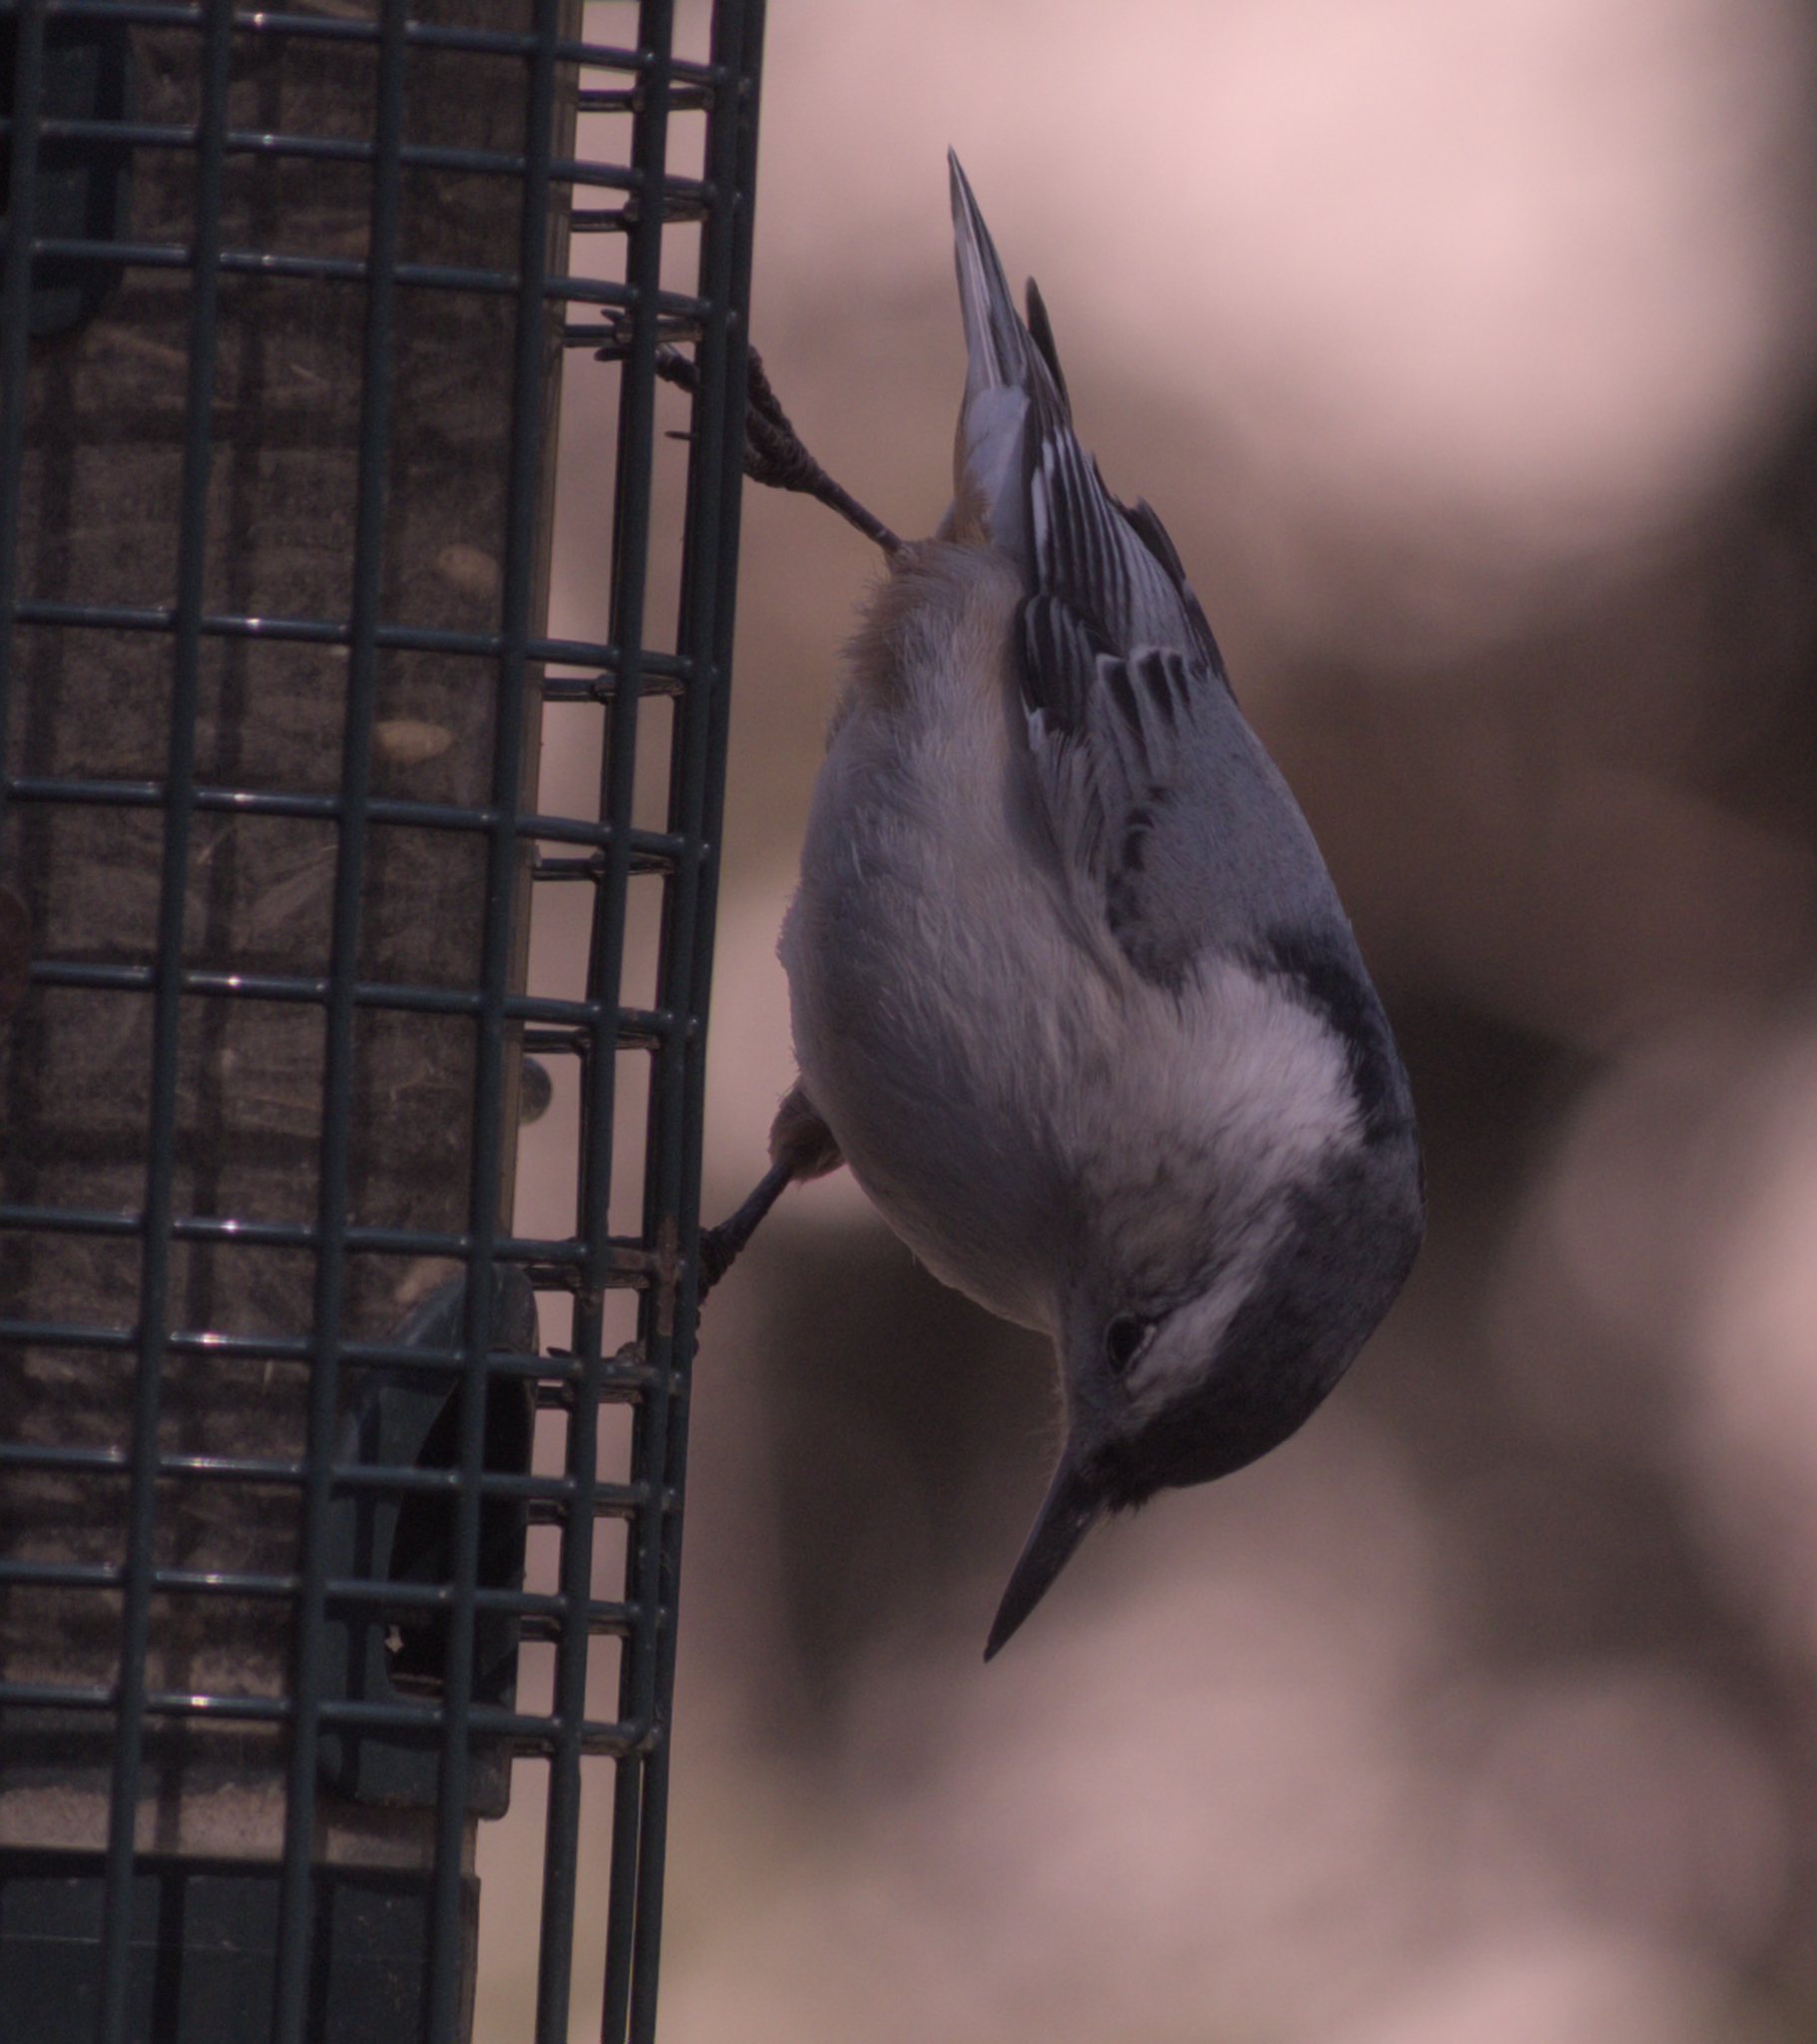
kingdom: Animalia
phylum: Chordata
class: Aves
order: Passeriformes
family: Sittidae
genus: Sitta
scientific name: Sitta carolinensis
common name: White-breasted nuthatch
